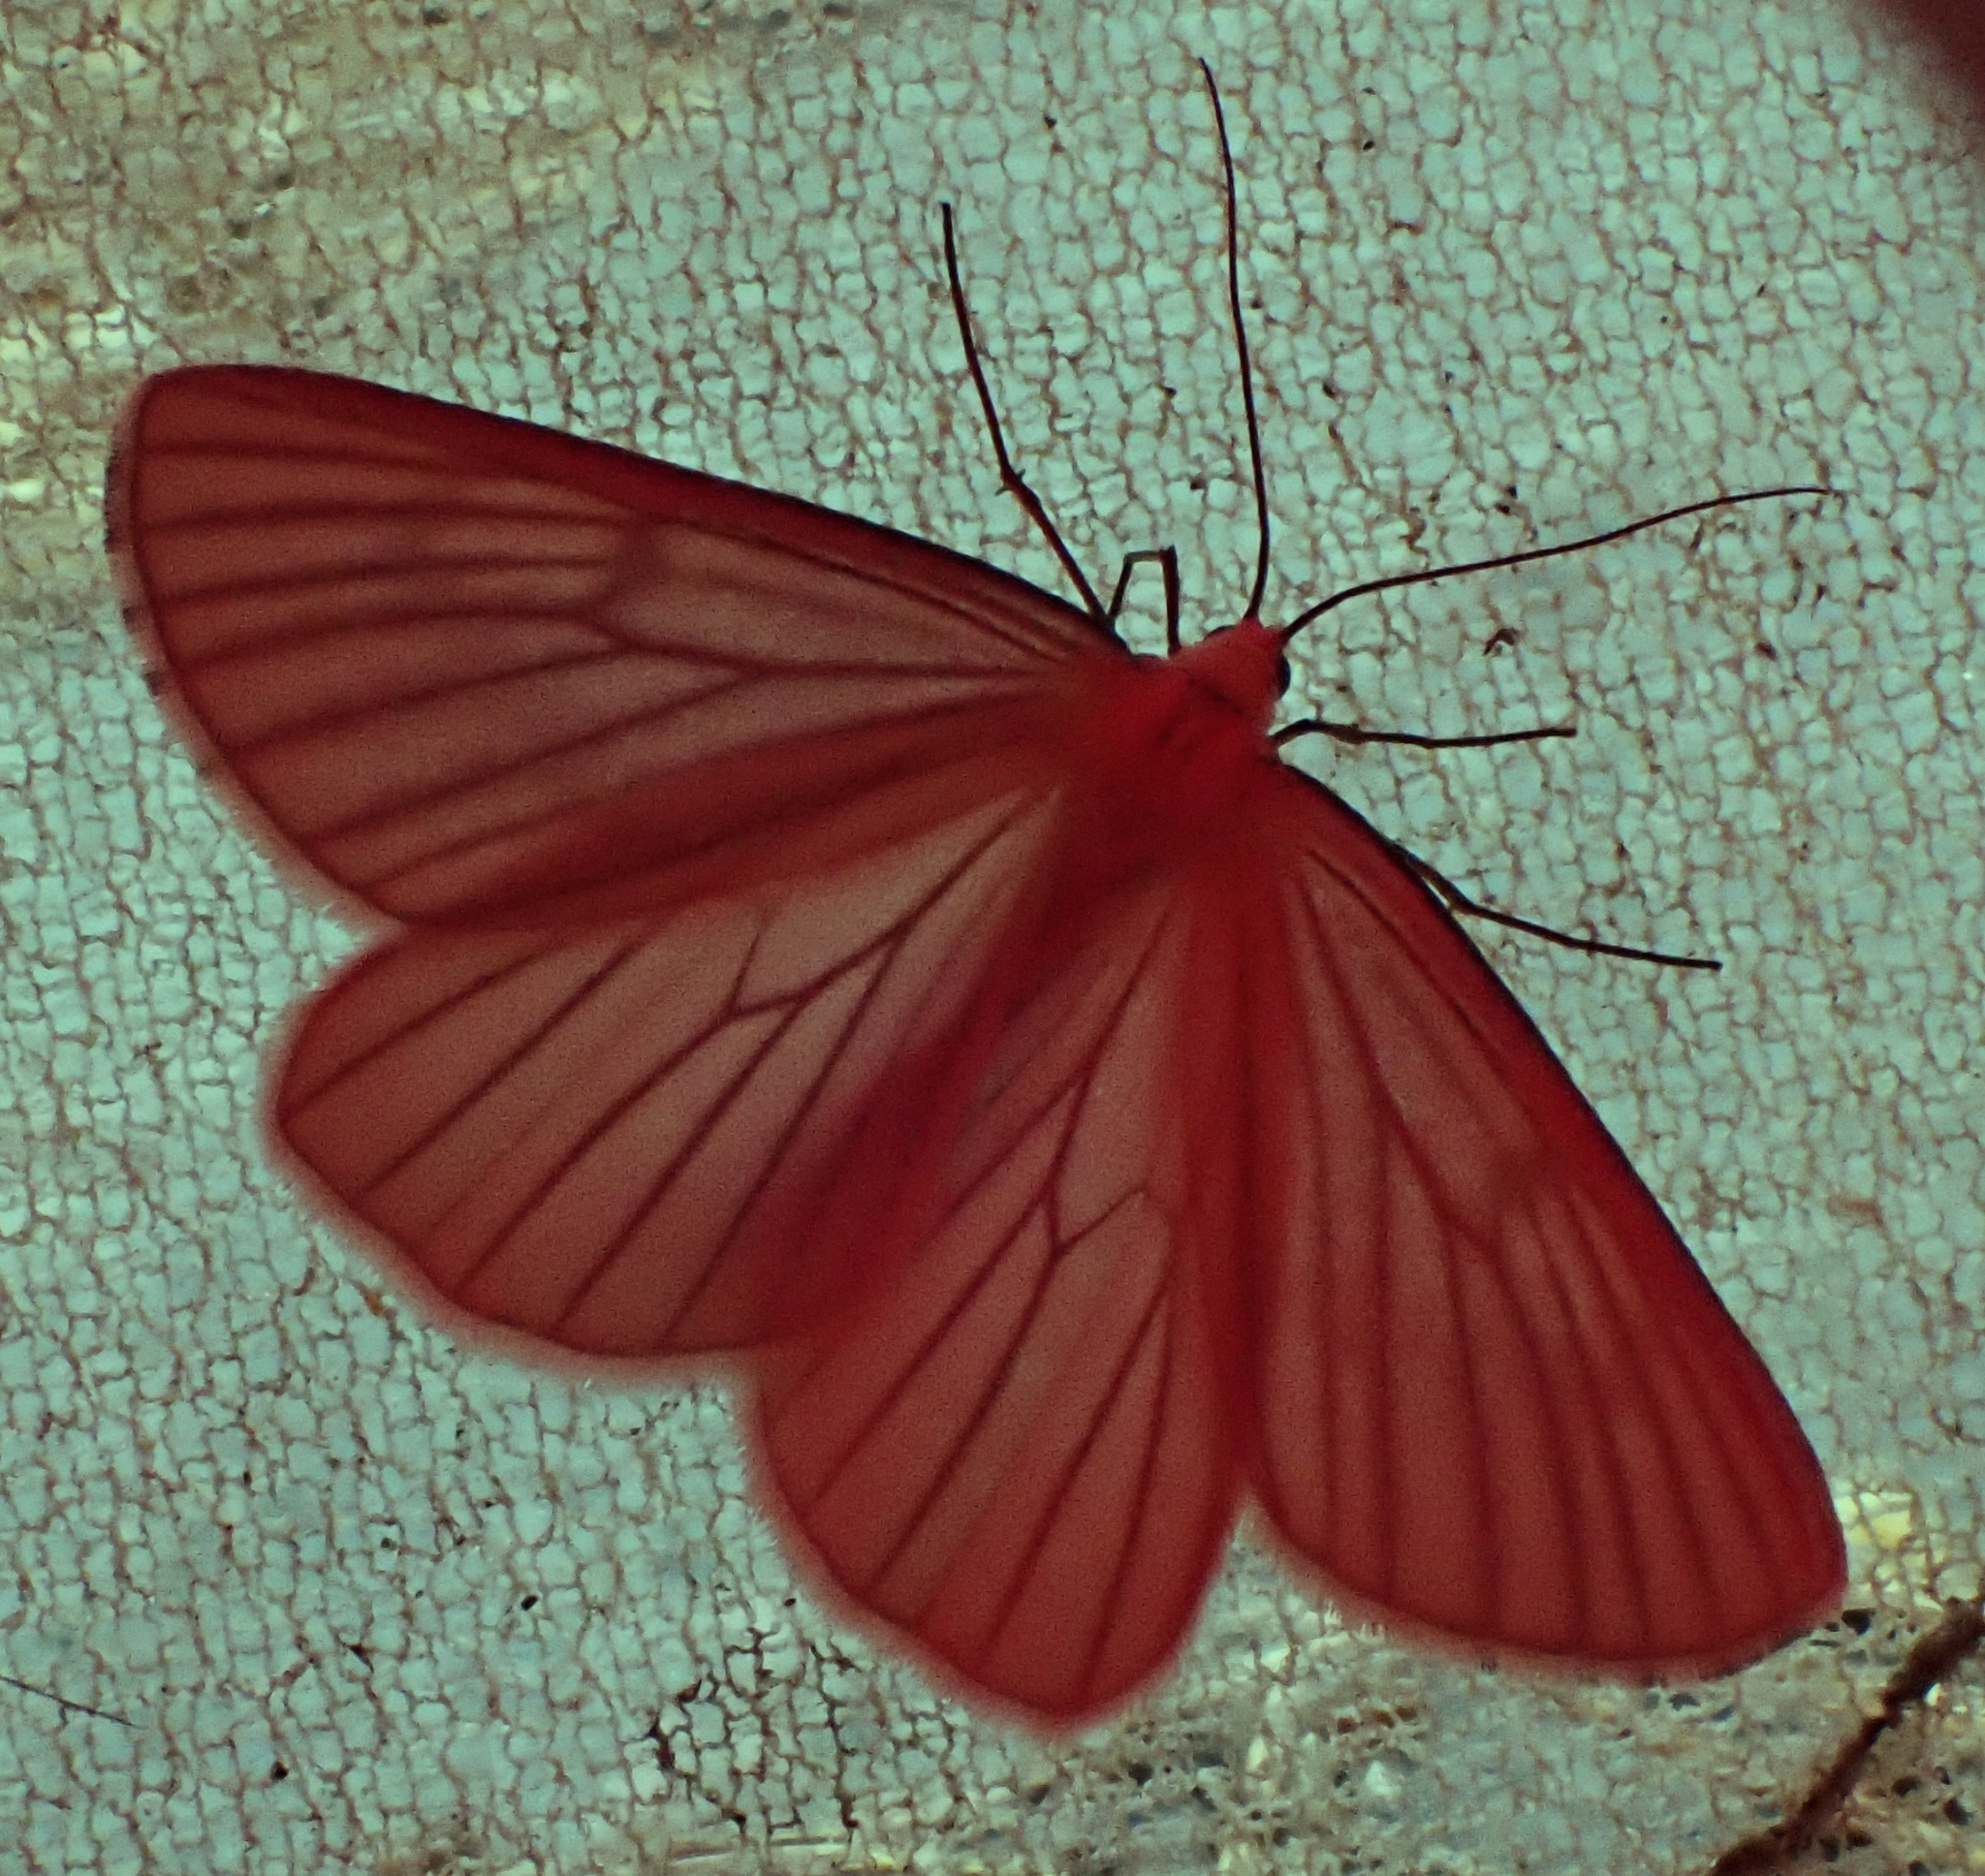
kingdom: Animalia
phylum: Arthropoda
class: Insecta
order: Lepidoptera
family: Geometridae
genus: Siona
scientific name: Siona lineata
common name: Black-veined moth
